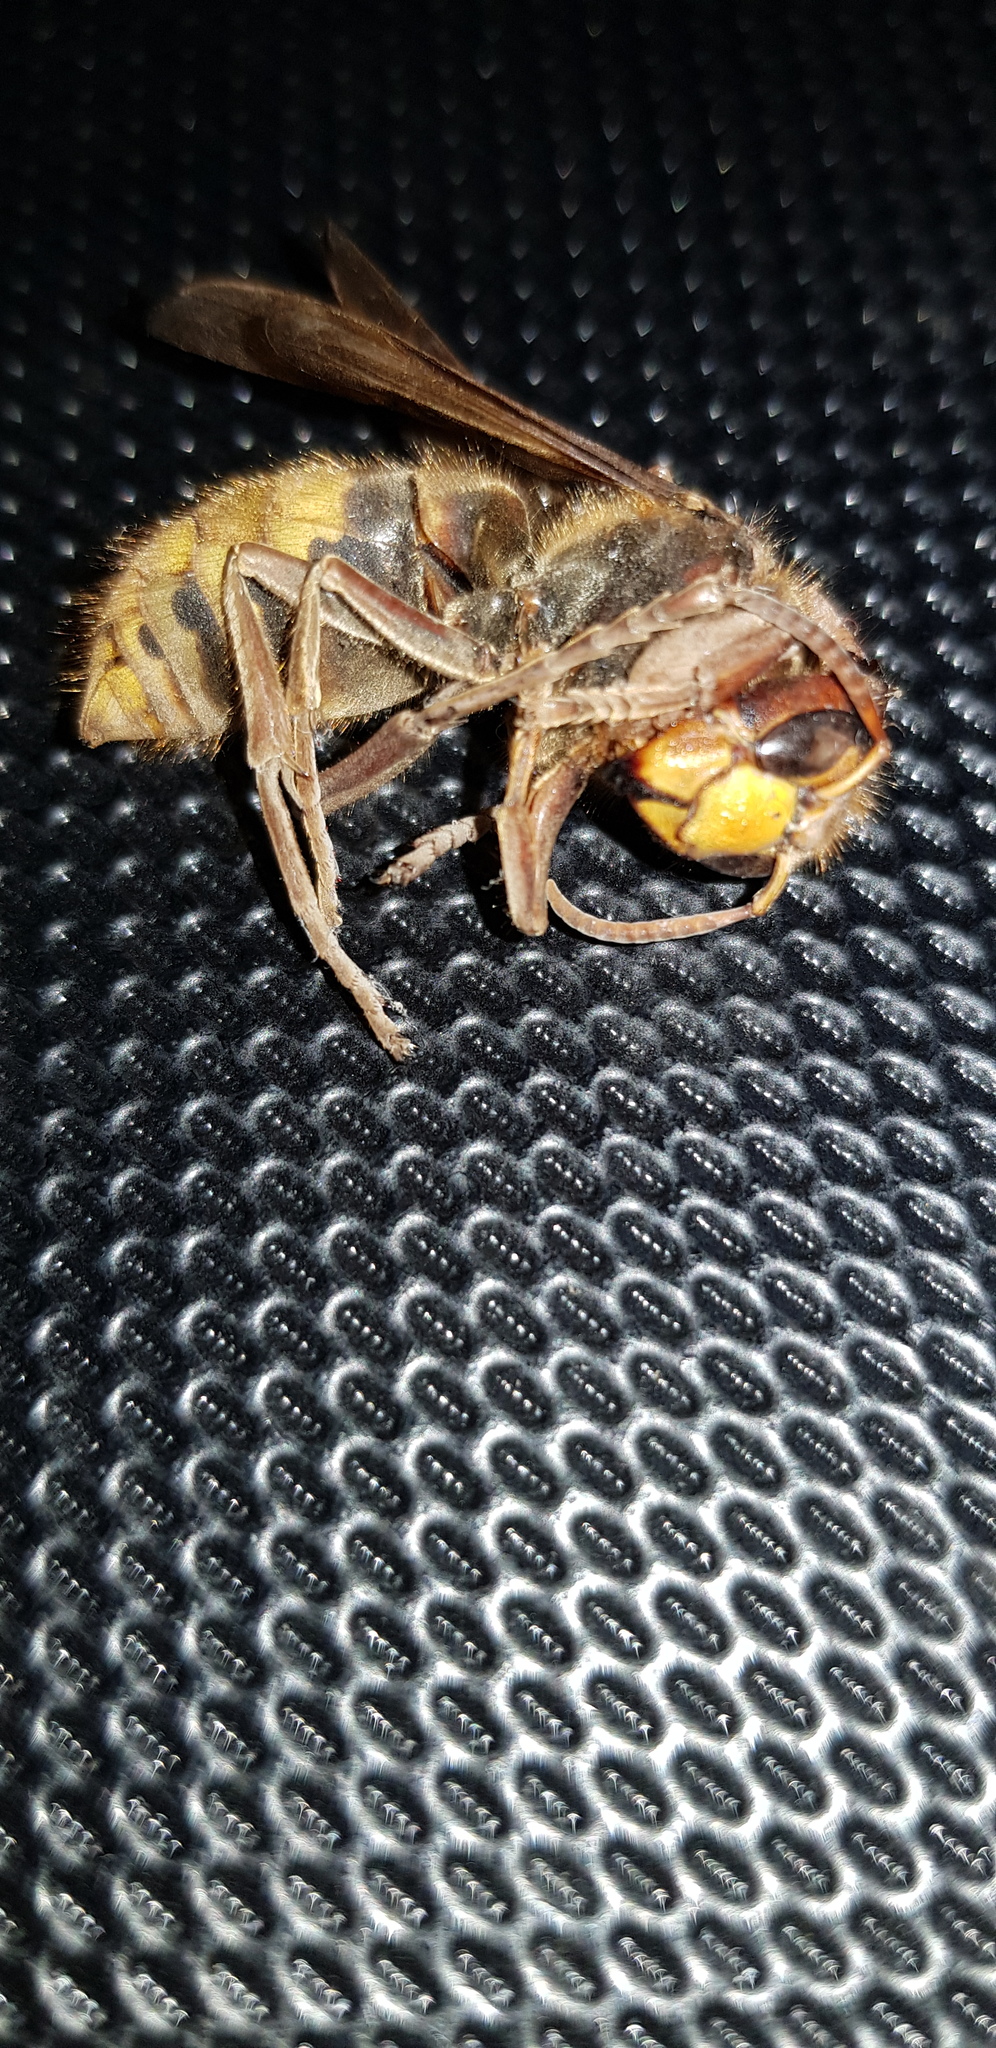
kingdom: Animalia
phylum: Arthropoda
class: Insecta
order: Hymenoptera
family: Vespidae
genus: Vespa
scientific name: Vespa crabro
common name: Hornet
